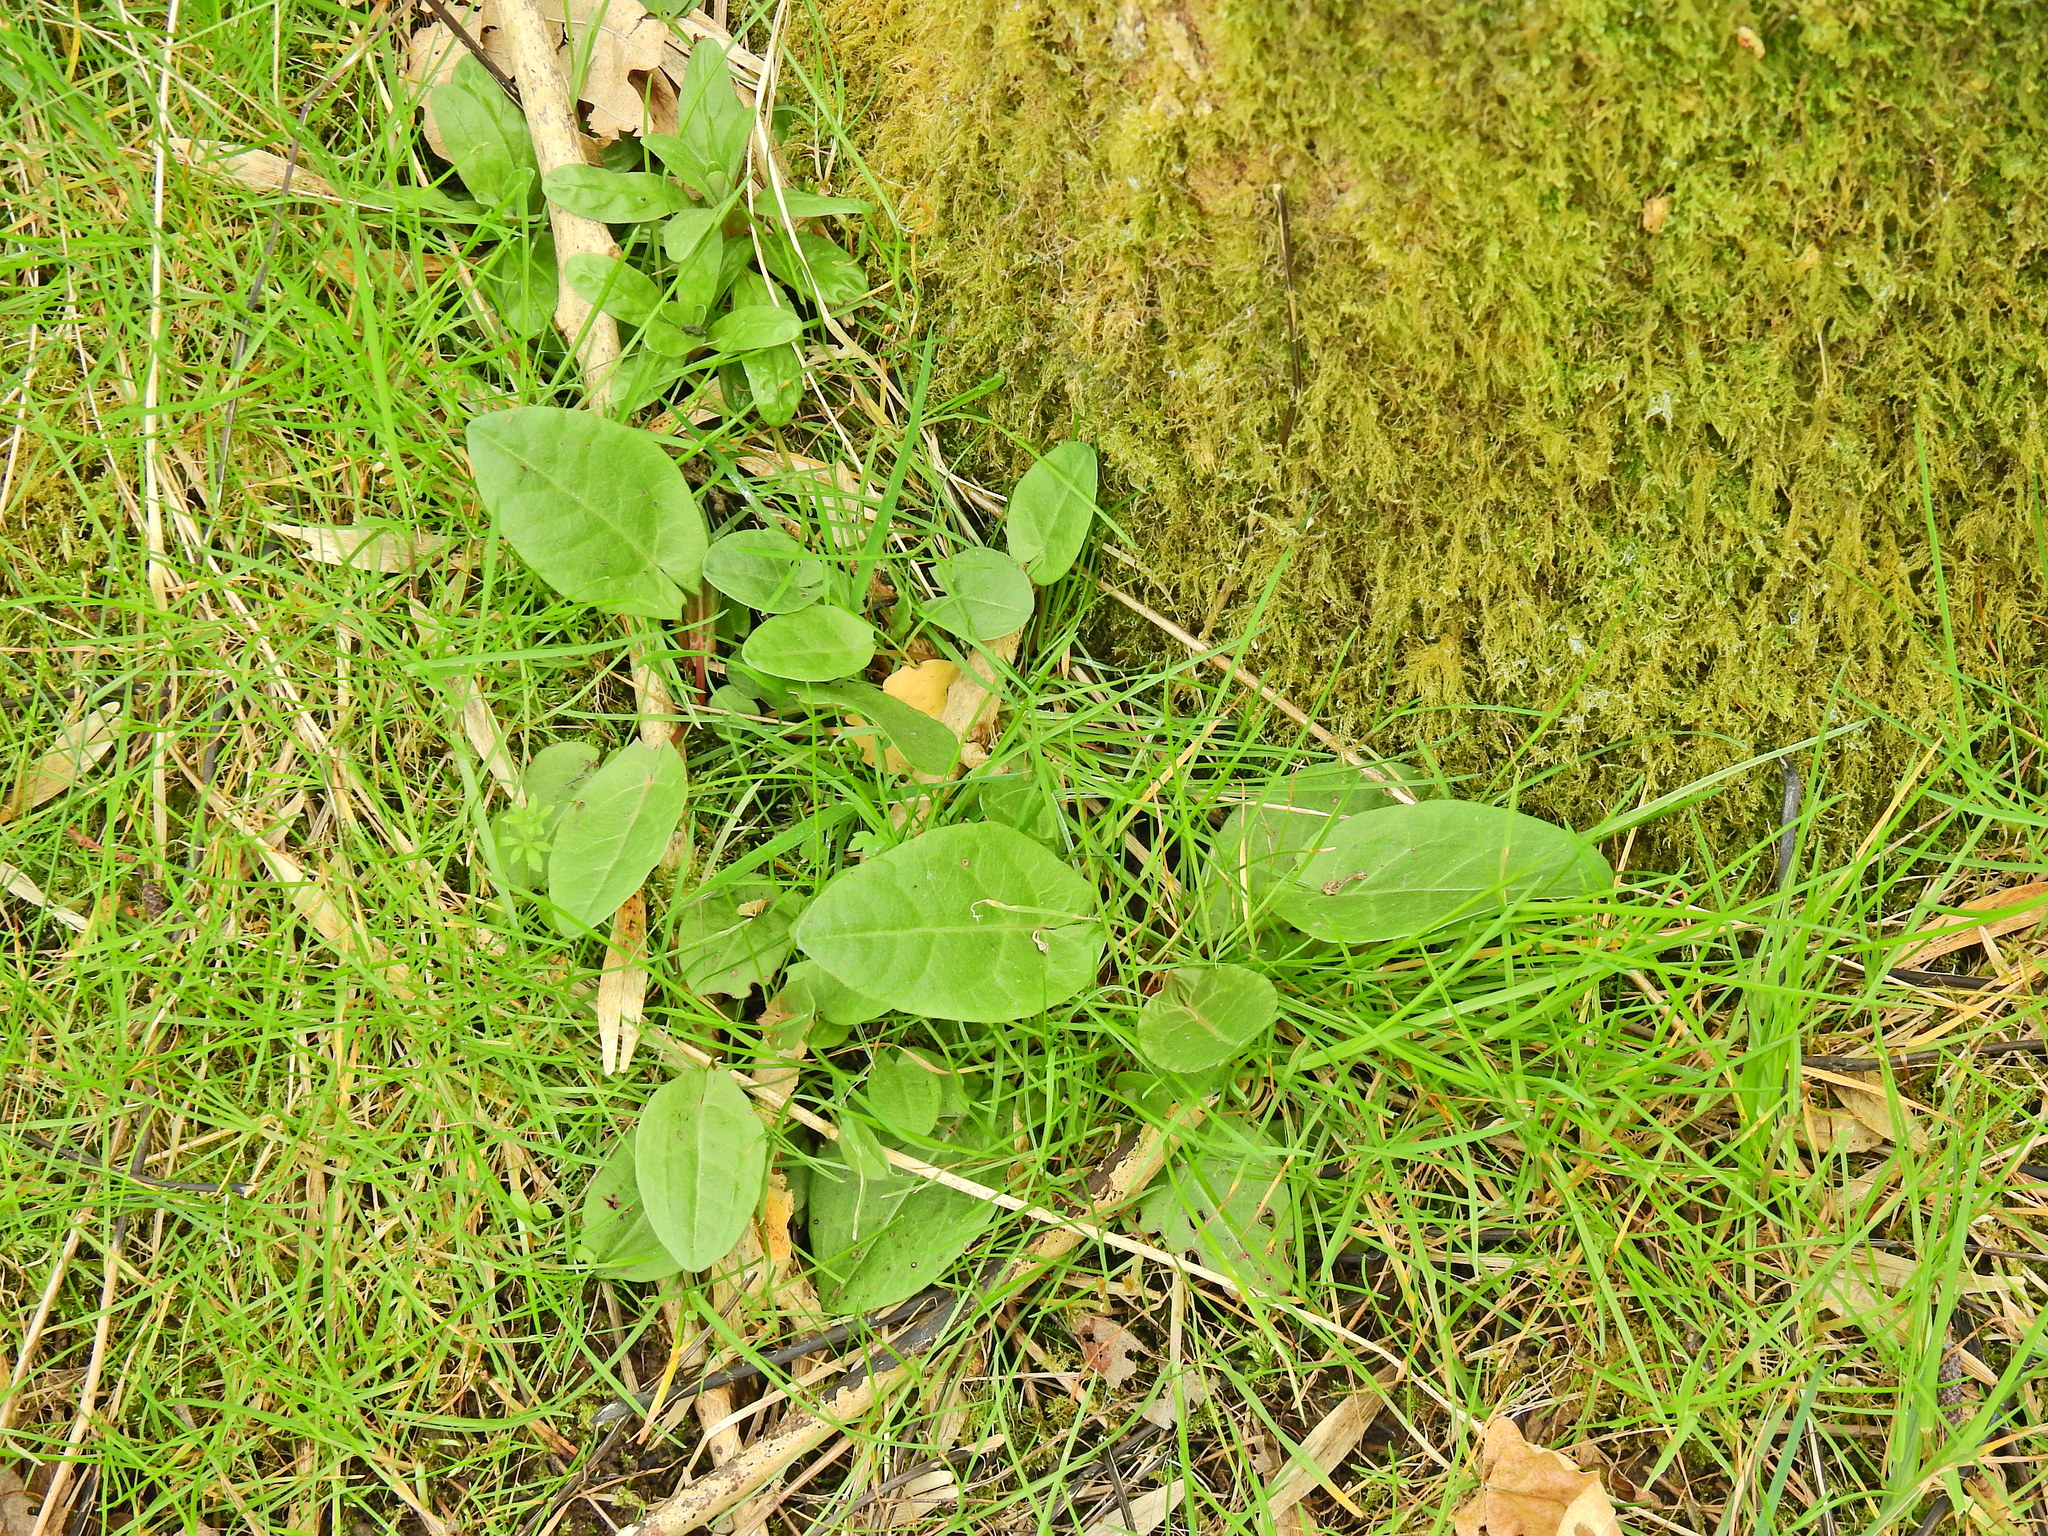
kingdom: Plantae
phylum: Tracheophyta
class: Magnoliopsida
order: Caryophyllales
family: Polygonaceae
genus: Rumex
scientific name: Rumex acetosa
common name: Garden sorrel
